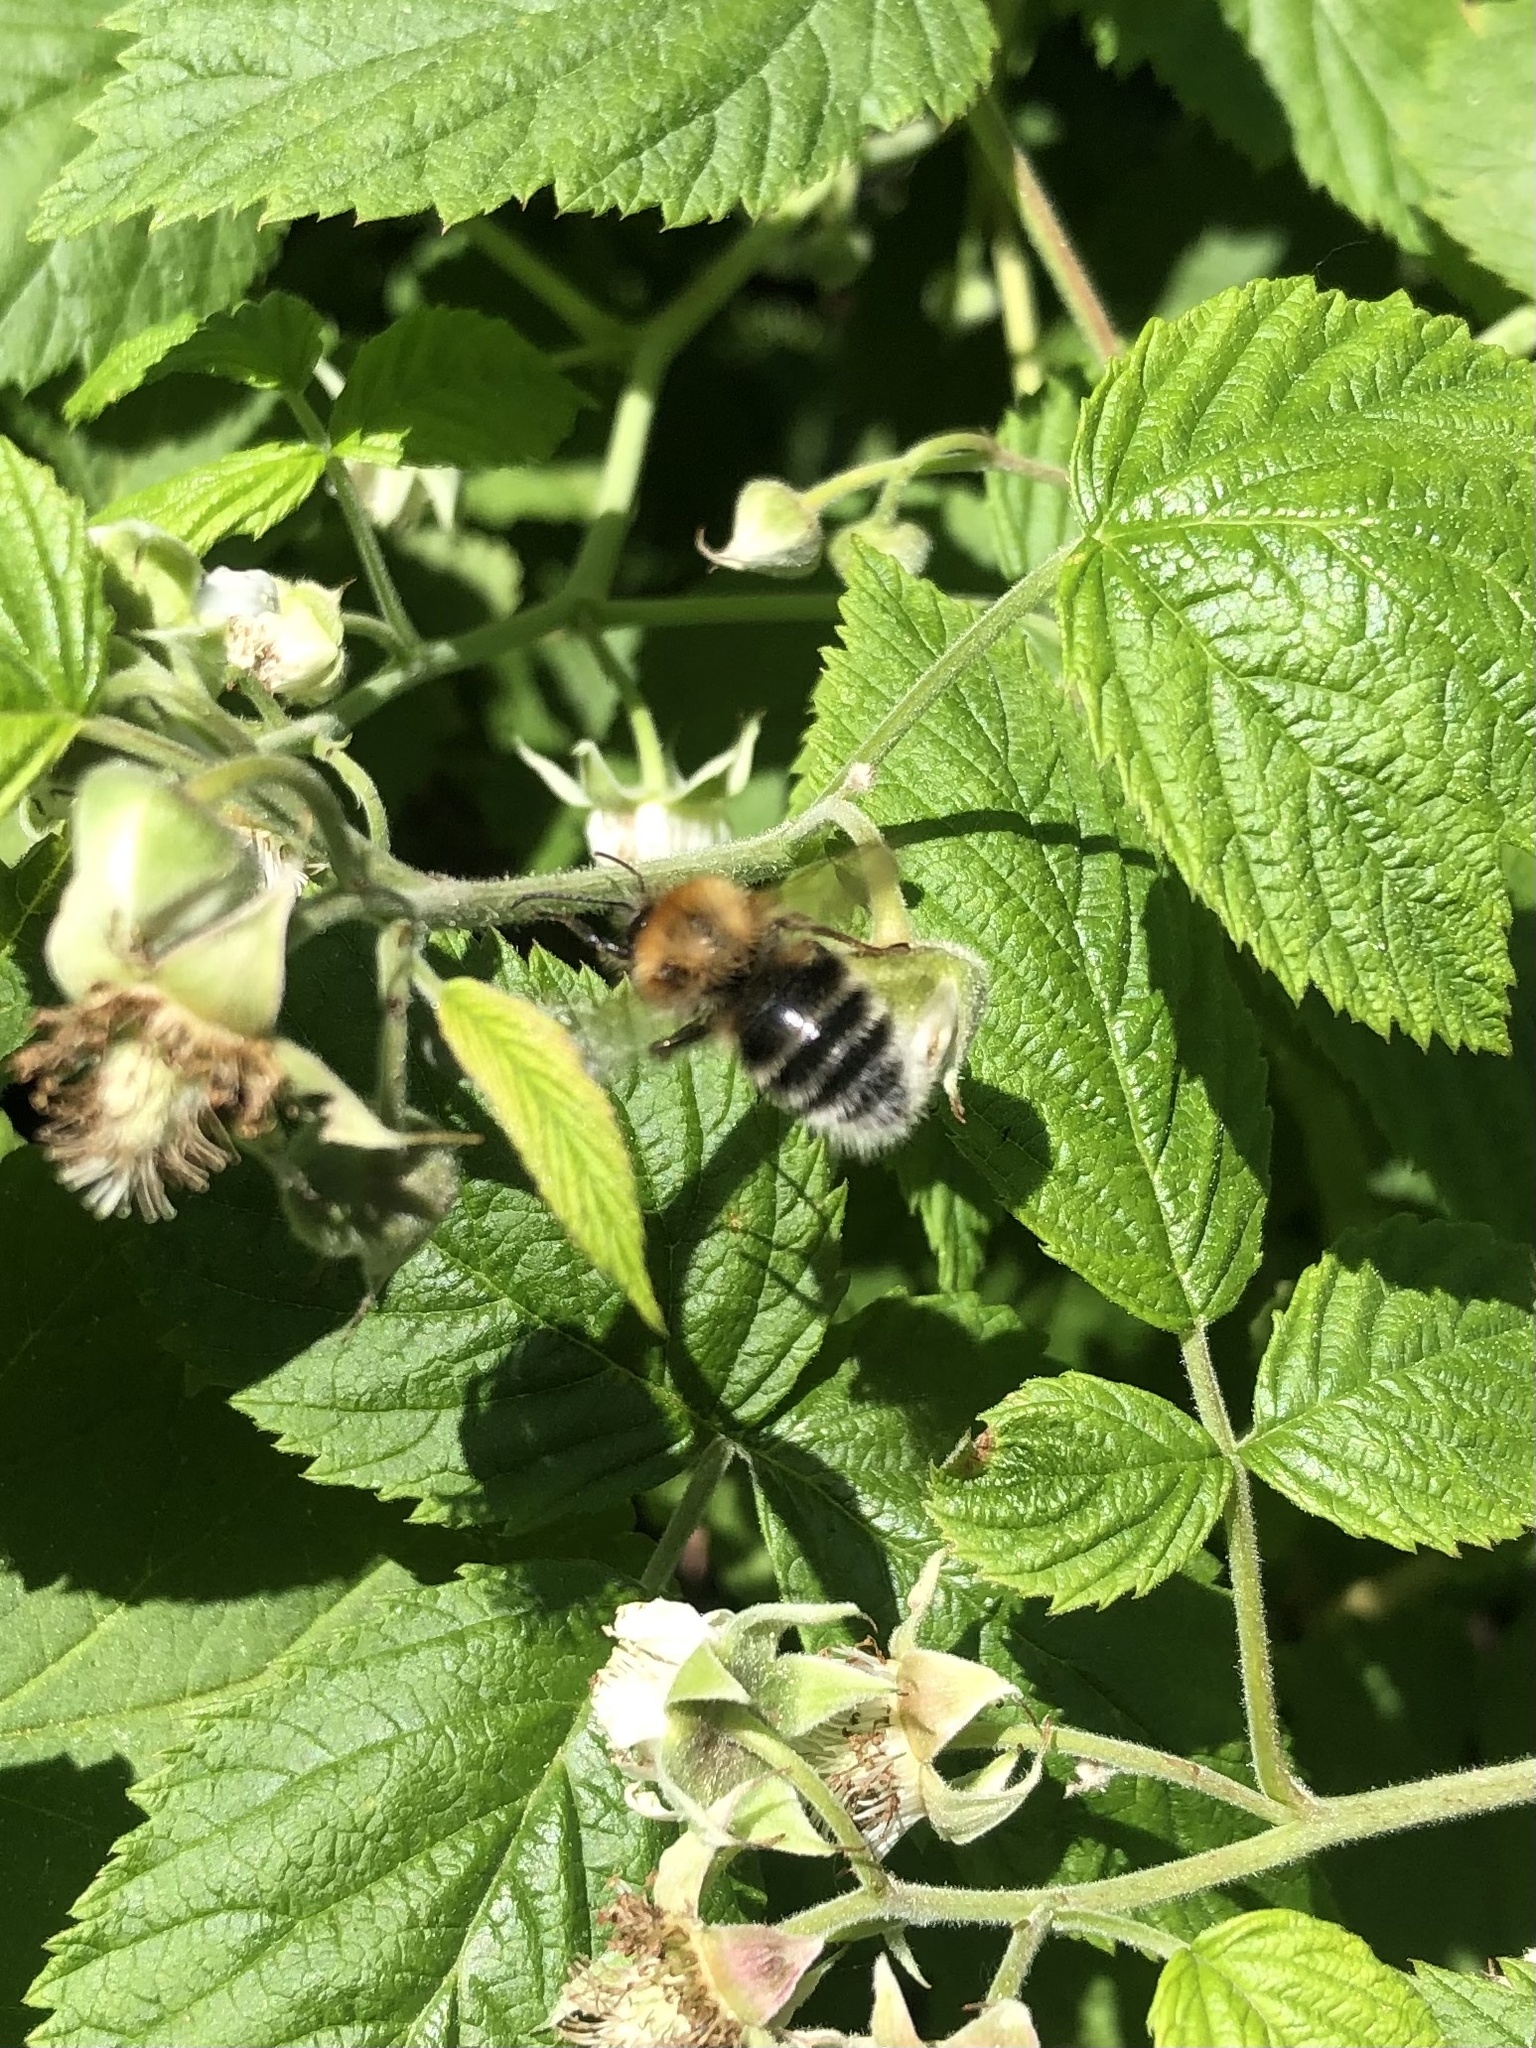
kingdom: Animalia
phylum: Arthropoda
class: Insecta
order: Hymenoptera
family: Apidae
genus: Bombus
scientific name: Bombus hypnorum
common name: New garden bumblebee
